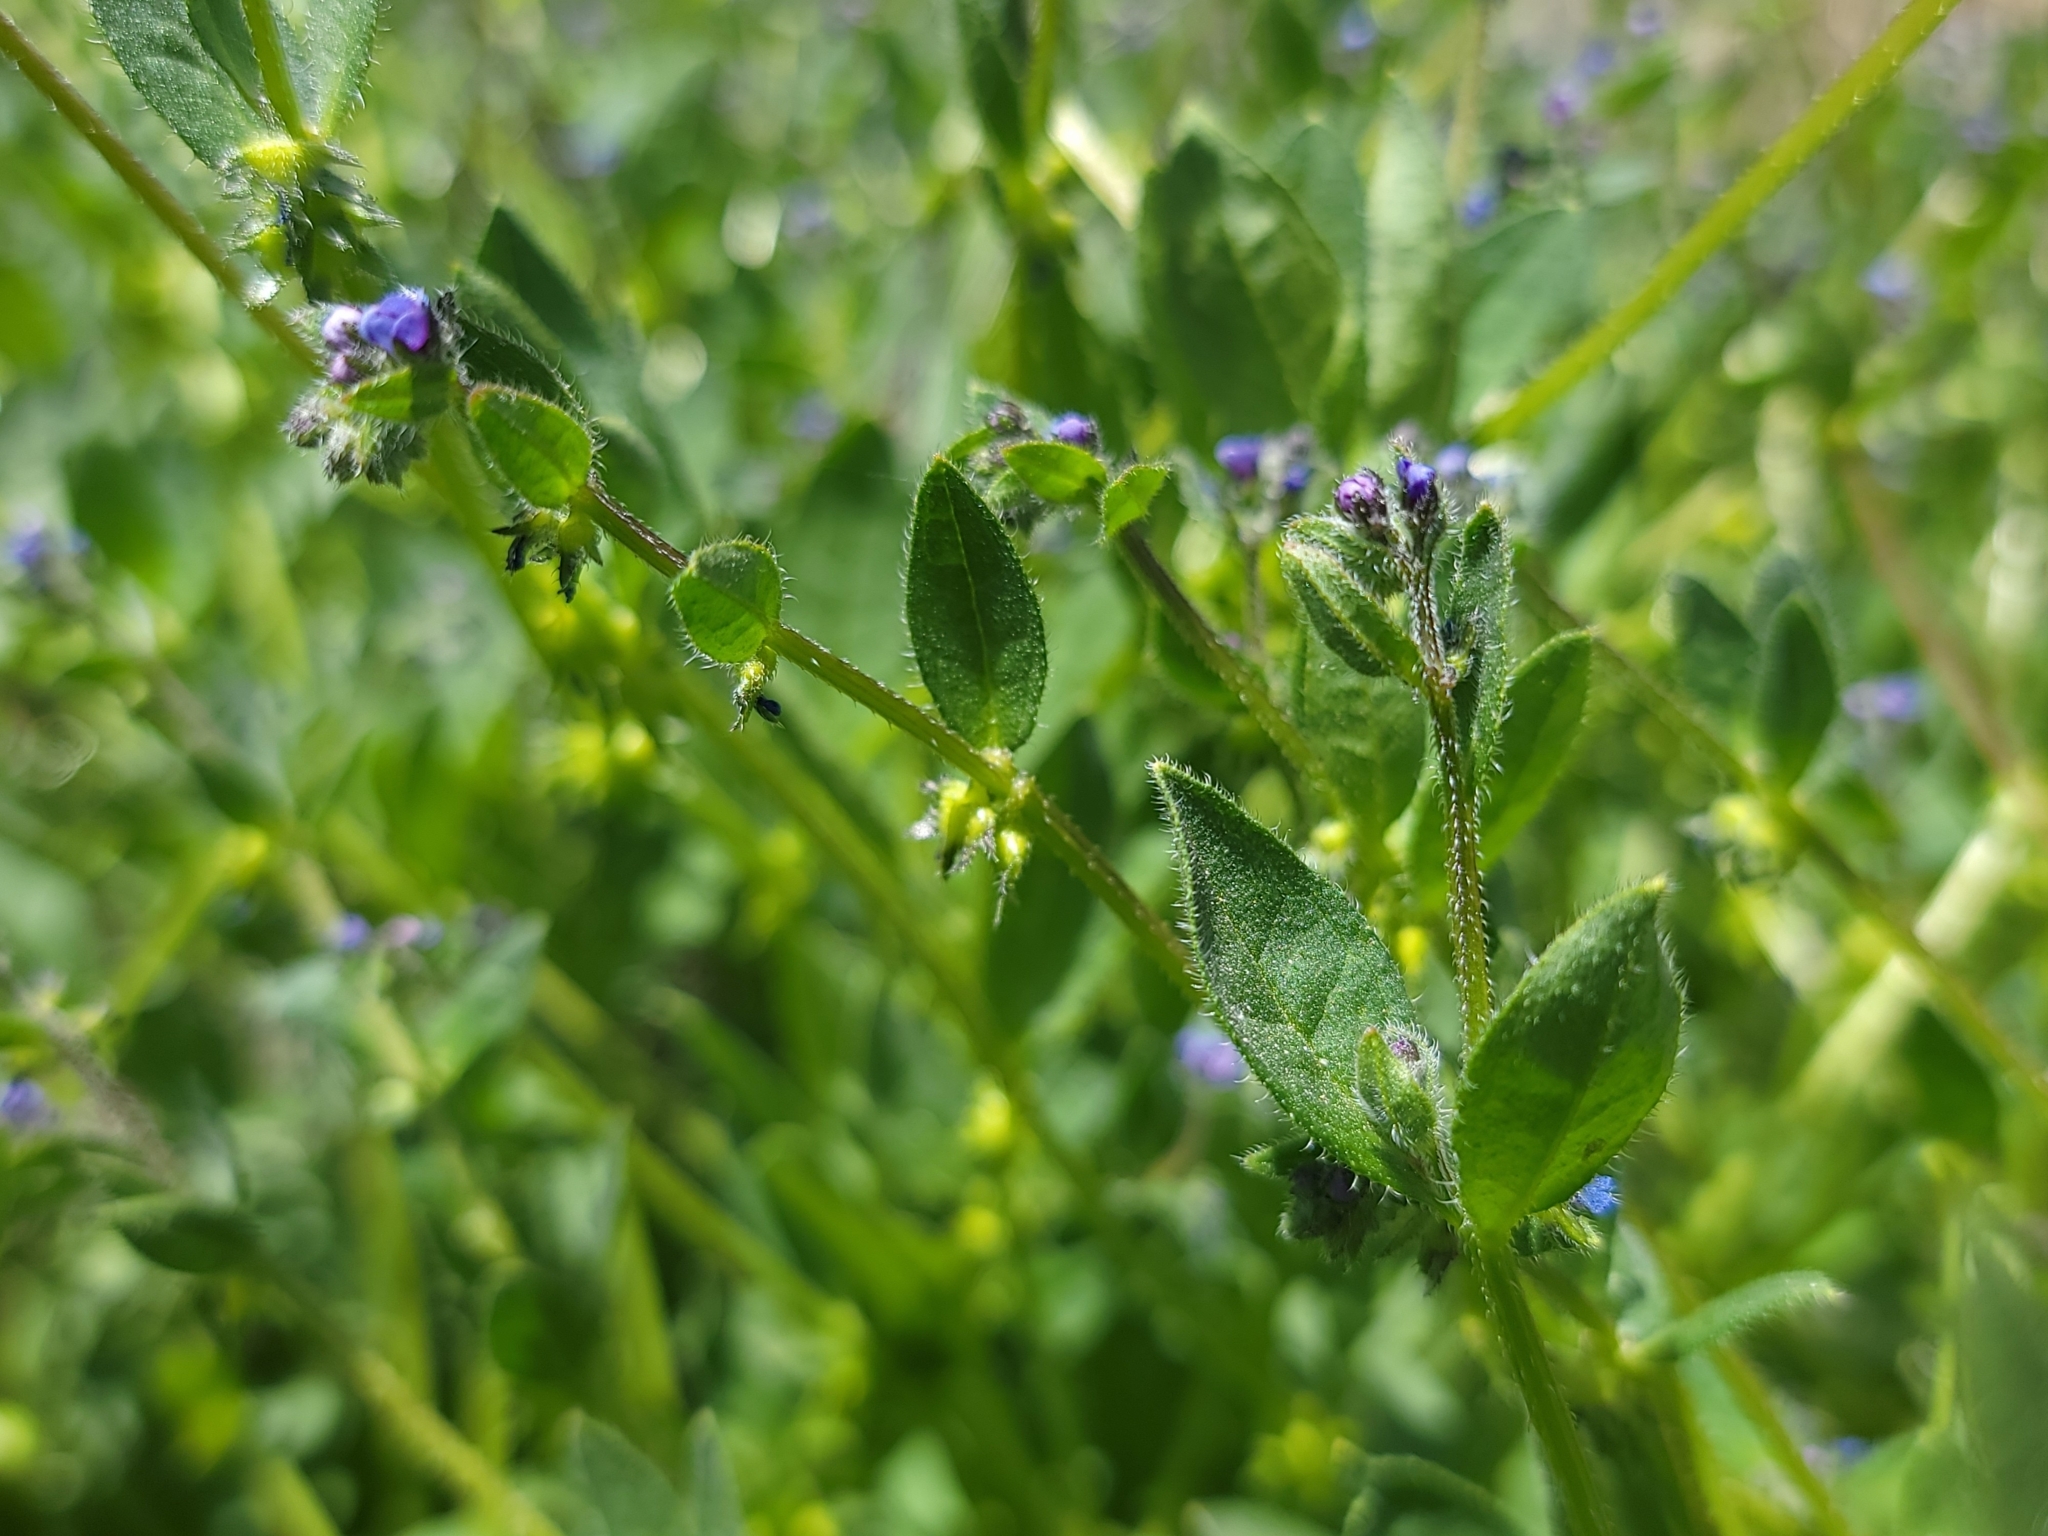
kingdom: Plantae
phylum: Tracheophyta
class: Magnoliopsida
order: Boraginales
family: Boraginaceae
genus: Asperugo
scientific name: Asperugo procumbens
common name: Madwort
